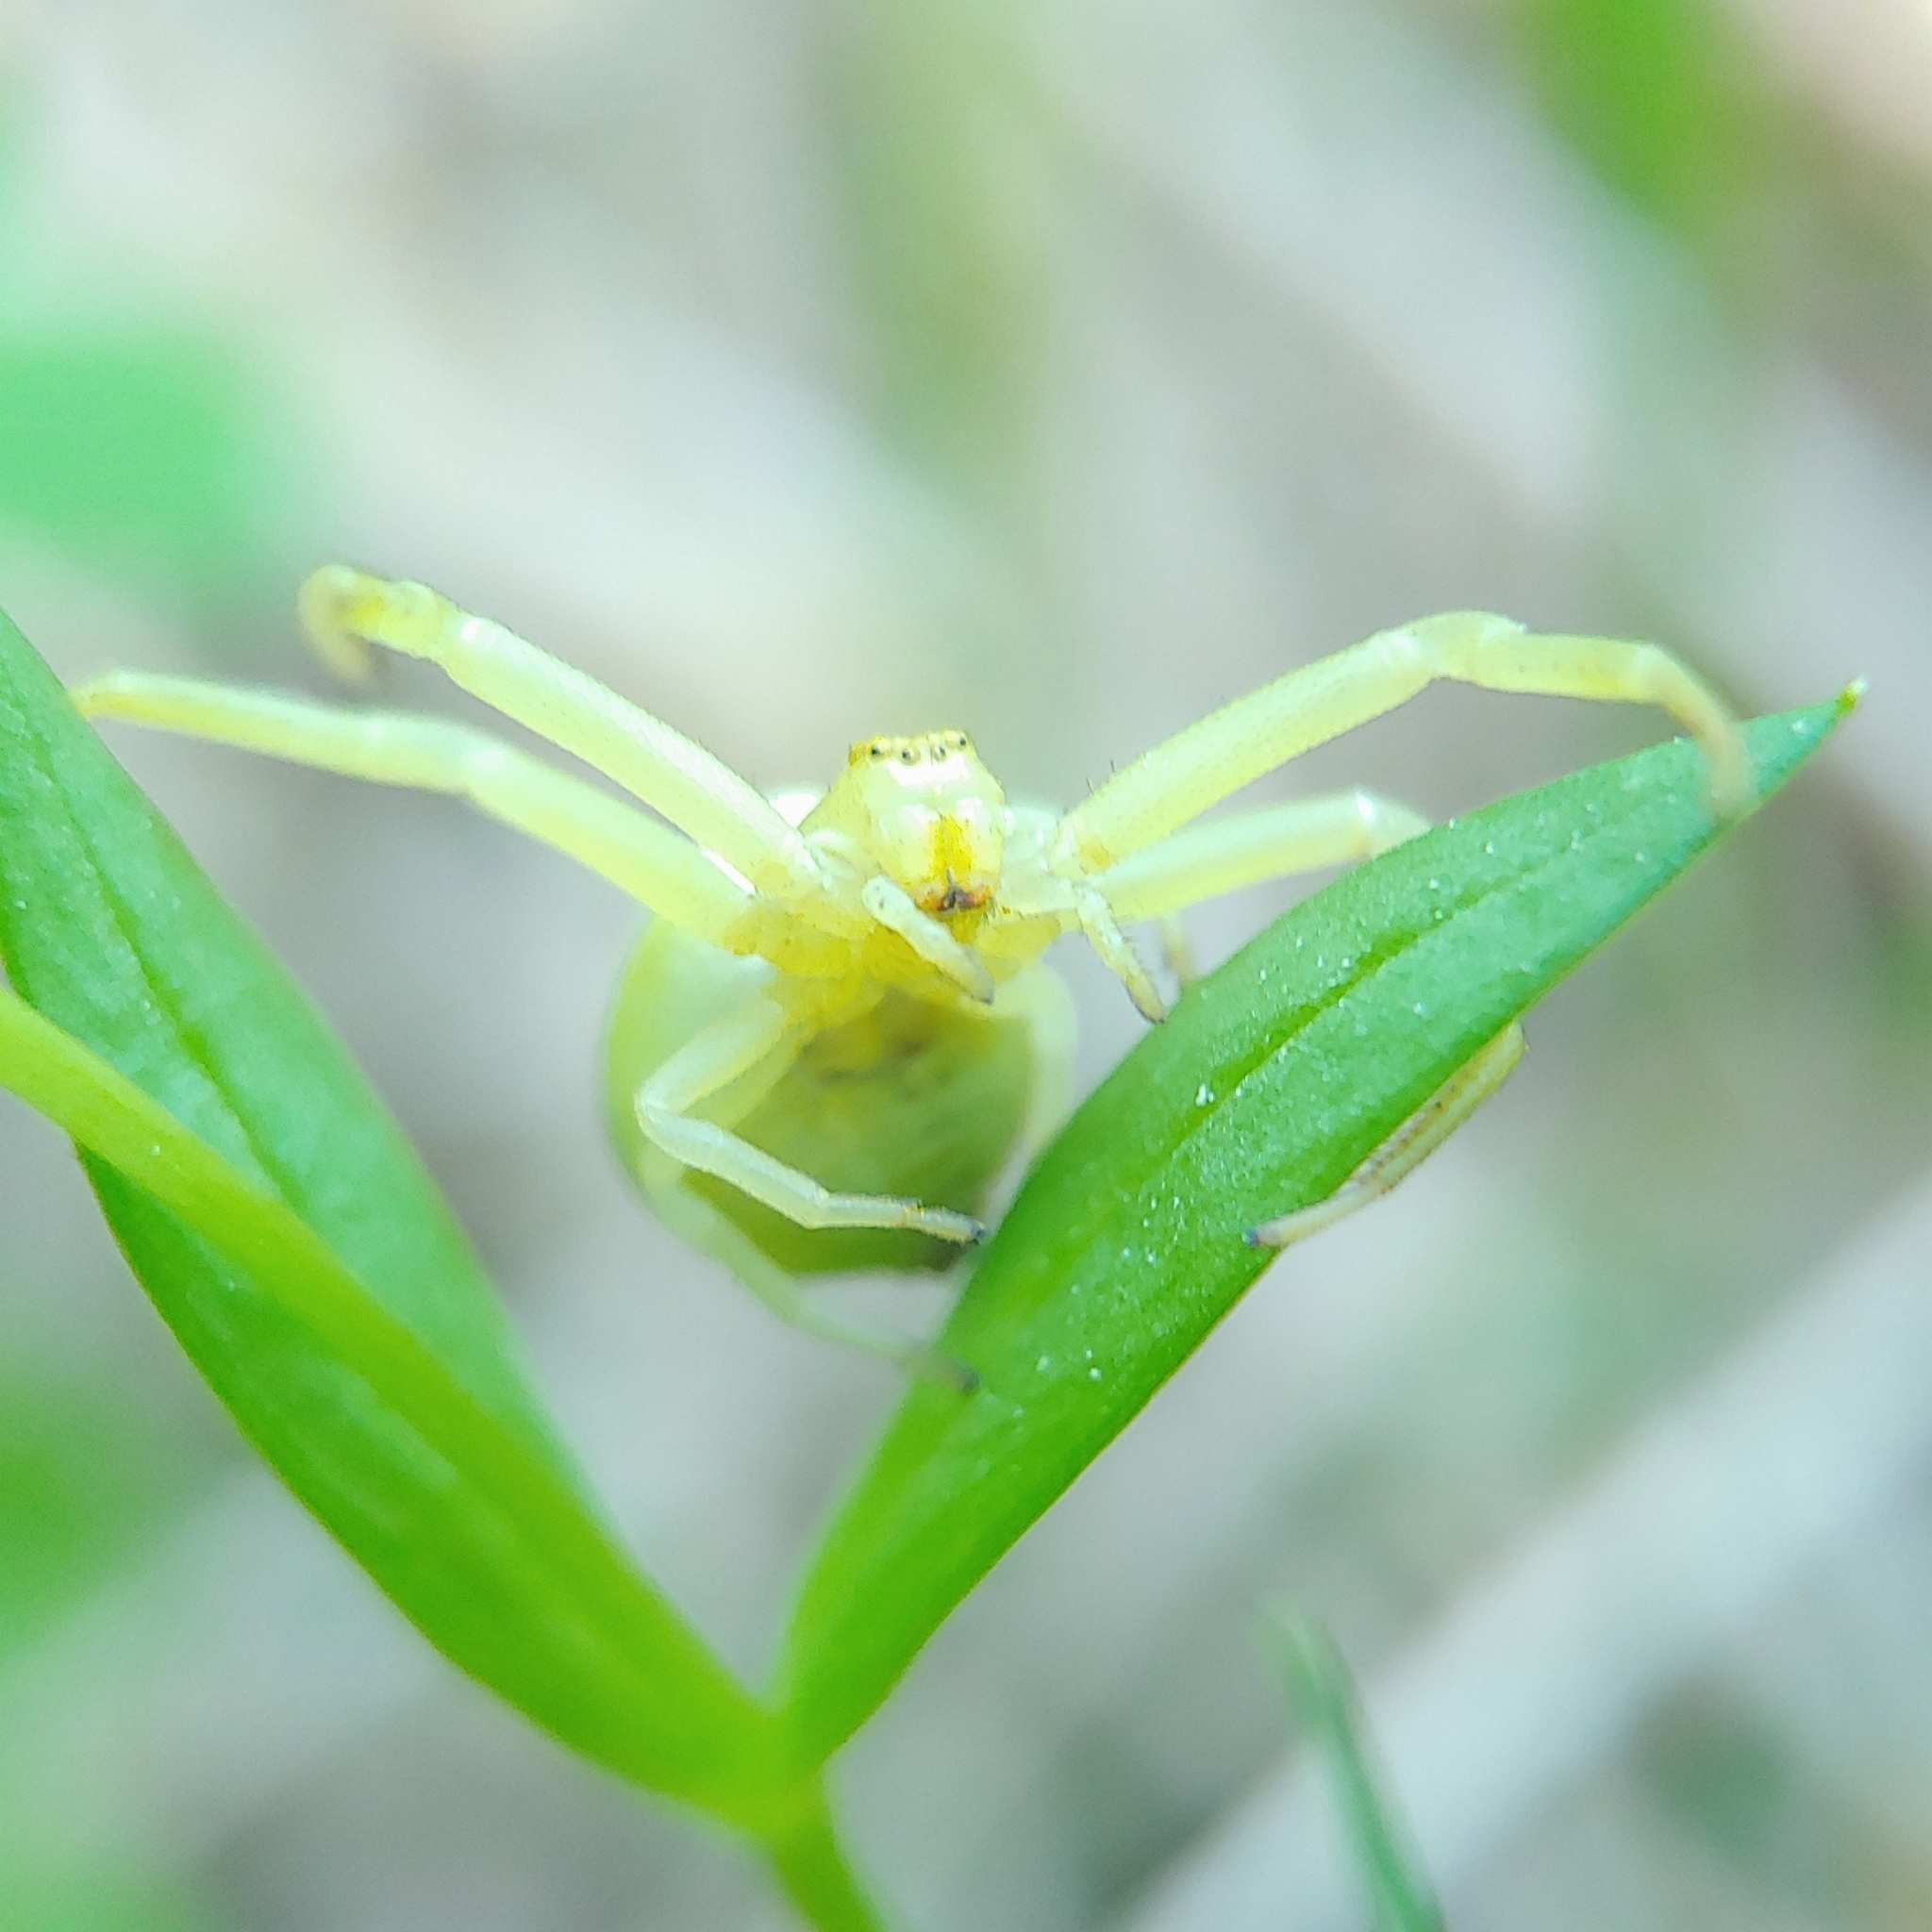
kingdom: Animalia
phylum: Arthropoda
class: Arachnida
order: Araneae
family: Thomisidae
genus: Misumena
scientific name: Misumena vatia
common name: Goldenrod crab spider
